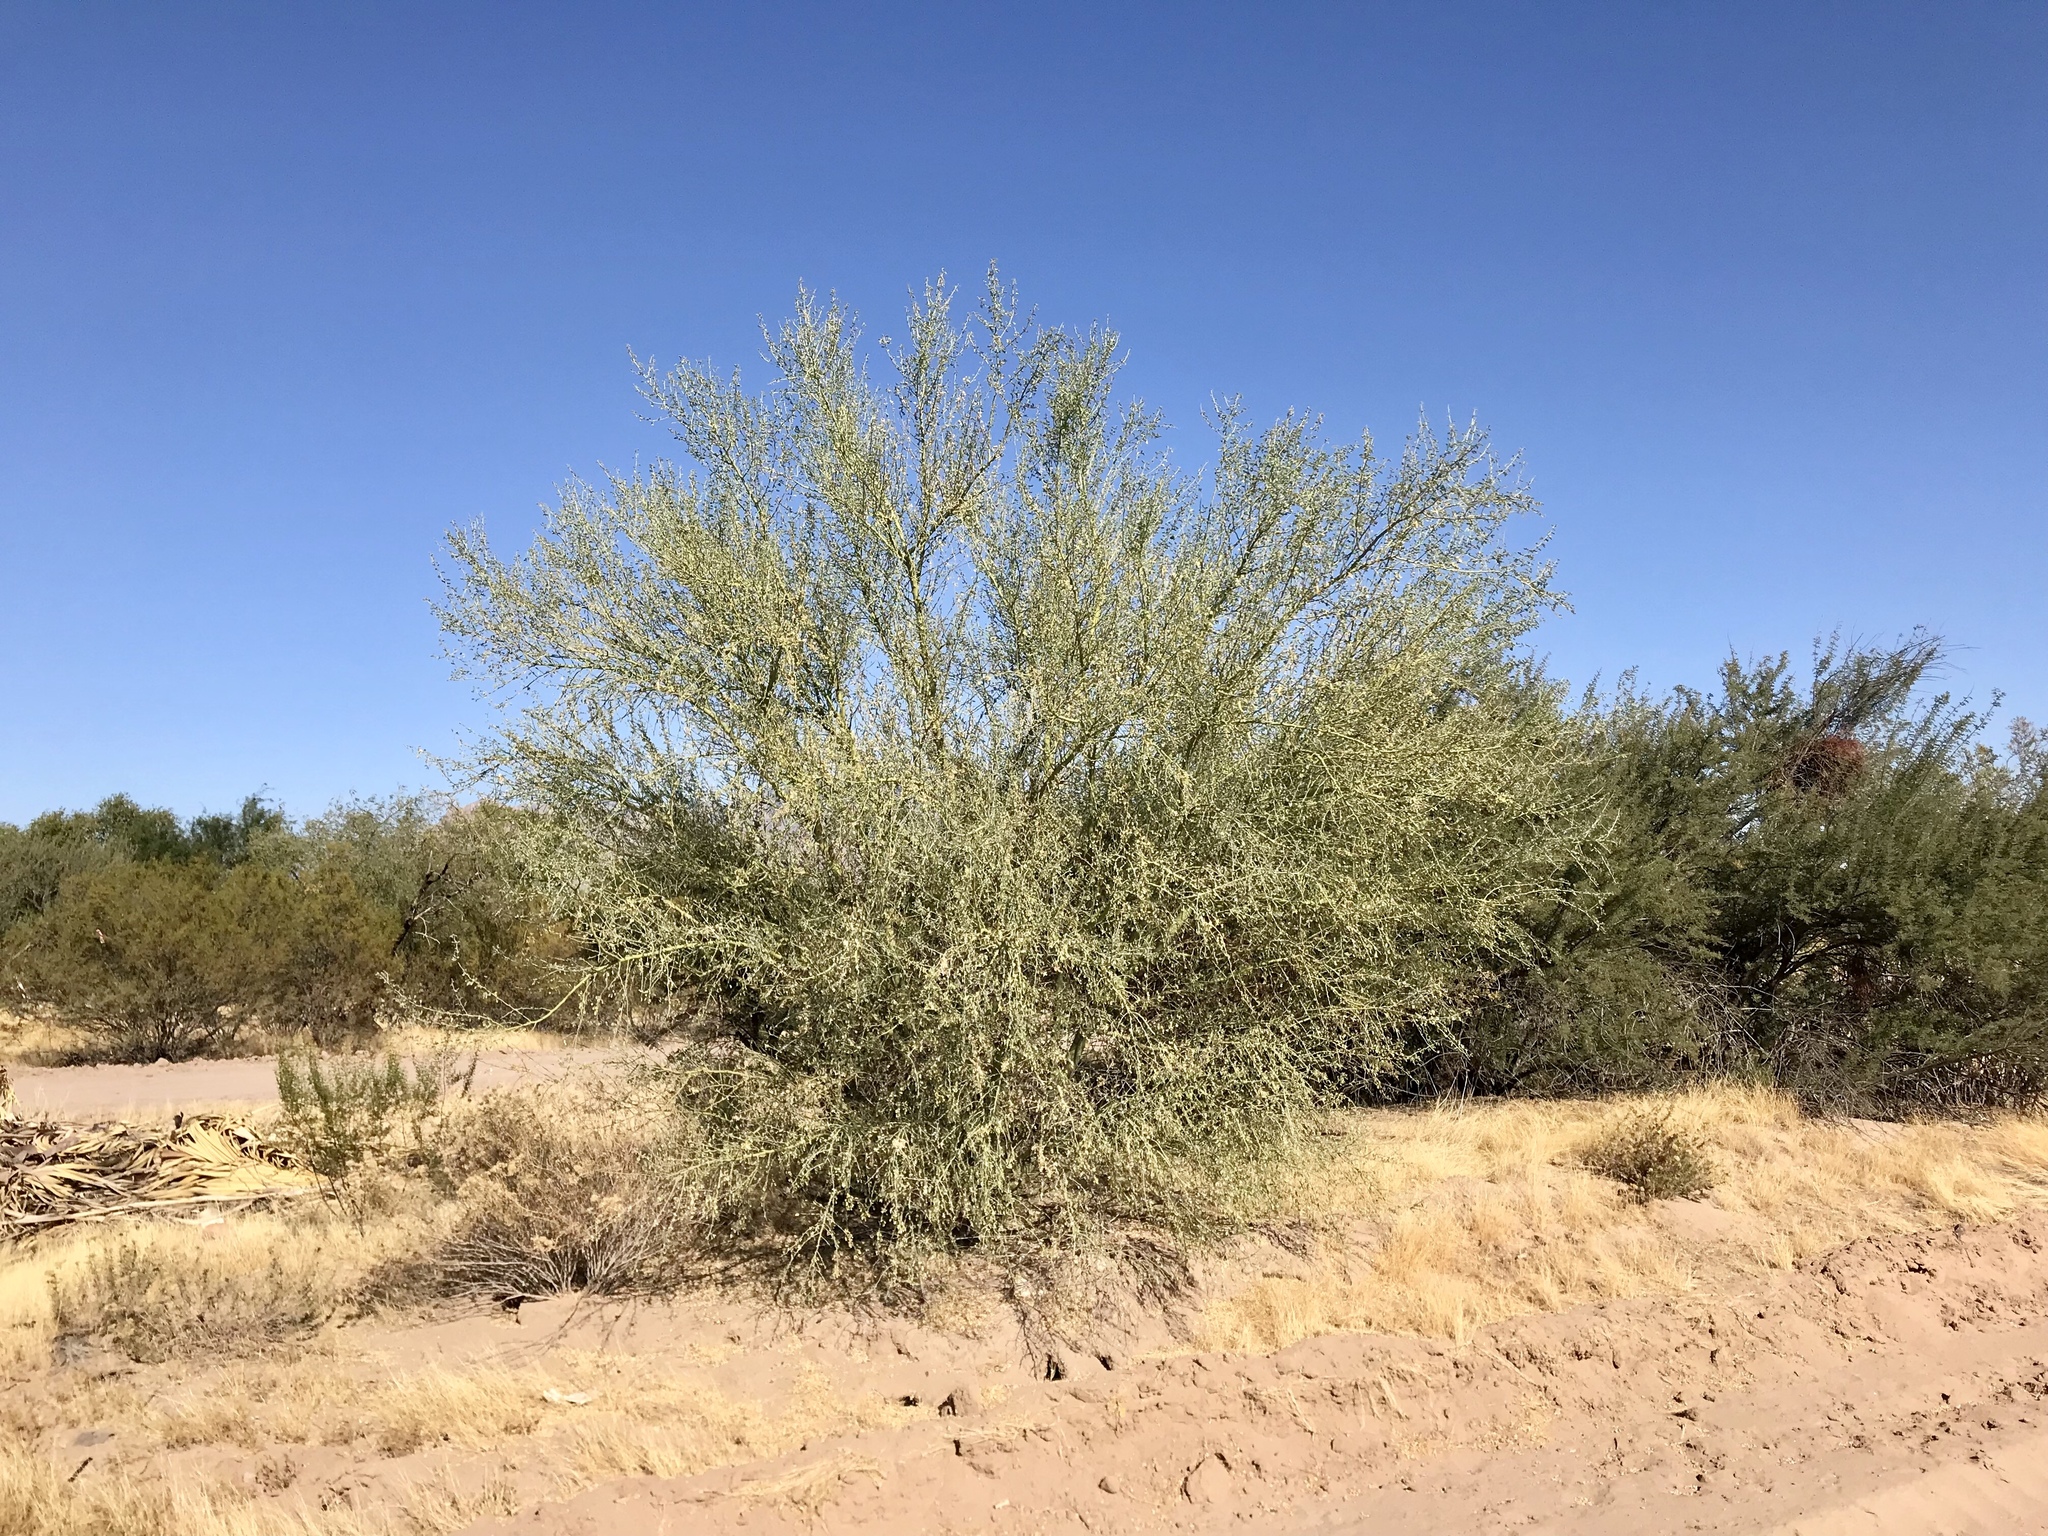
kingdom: Plantae
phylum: Tracheophyta
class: Magnoliopsida
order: Fabales
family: Fabaceae
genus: Parkinsonia
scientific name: Parkinsonia florida
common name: Blue paloverde
